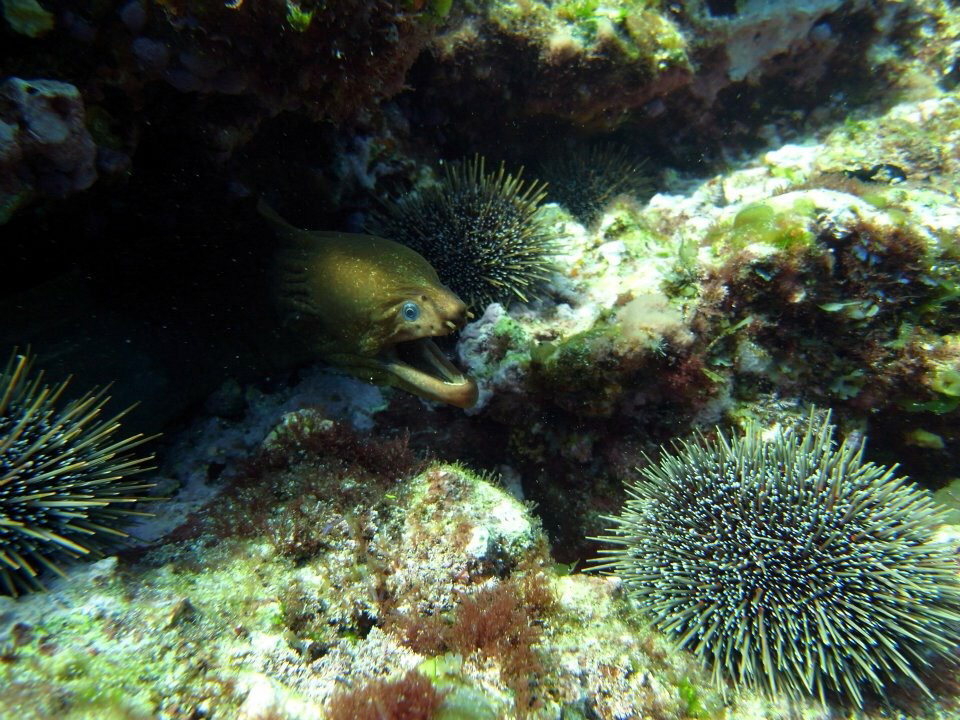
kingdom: Animalia
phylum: Chordata
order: Anguilliformes
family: Muraenidae
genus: Gymnothorax
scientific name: Gymnothorax prasinus
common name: Yellow moray
